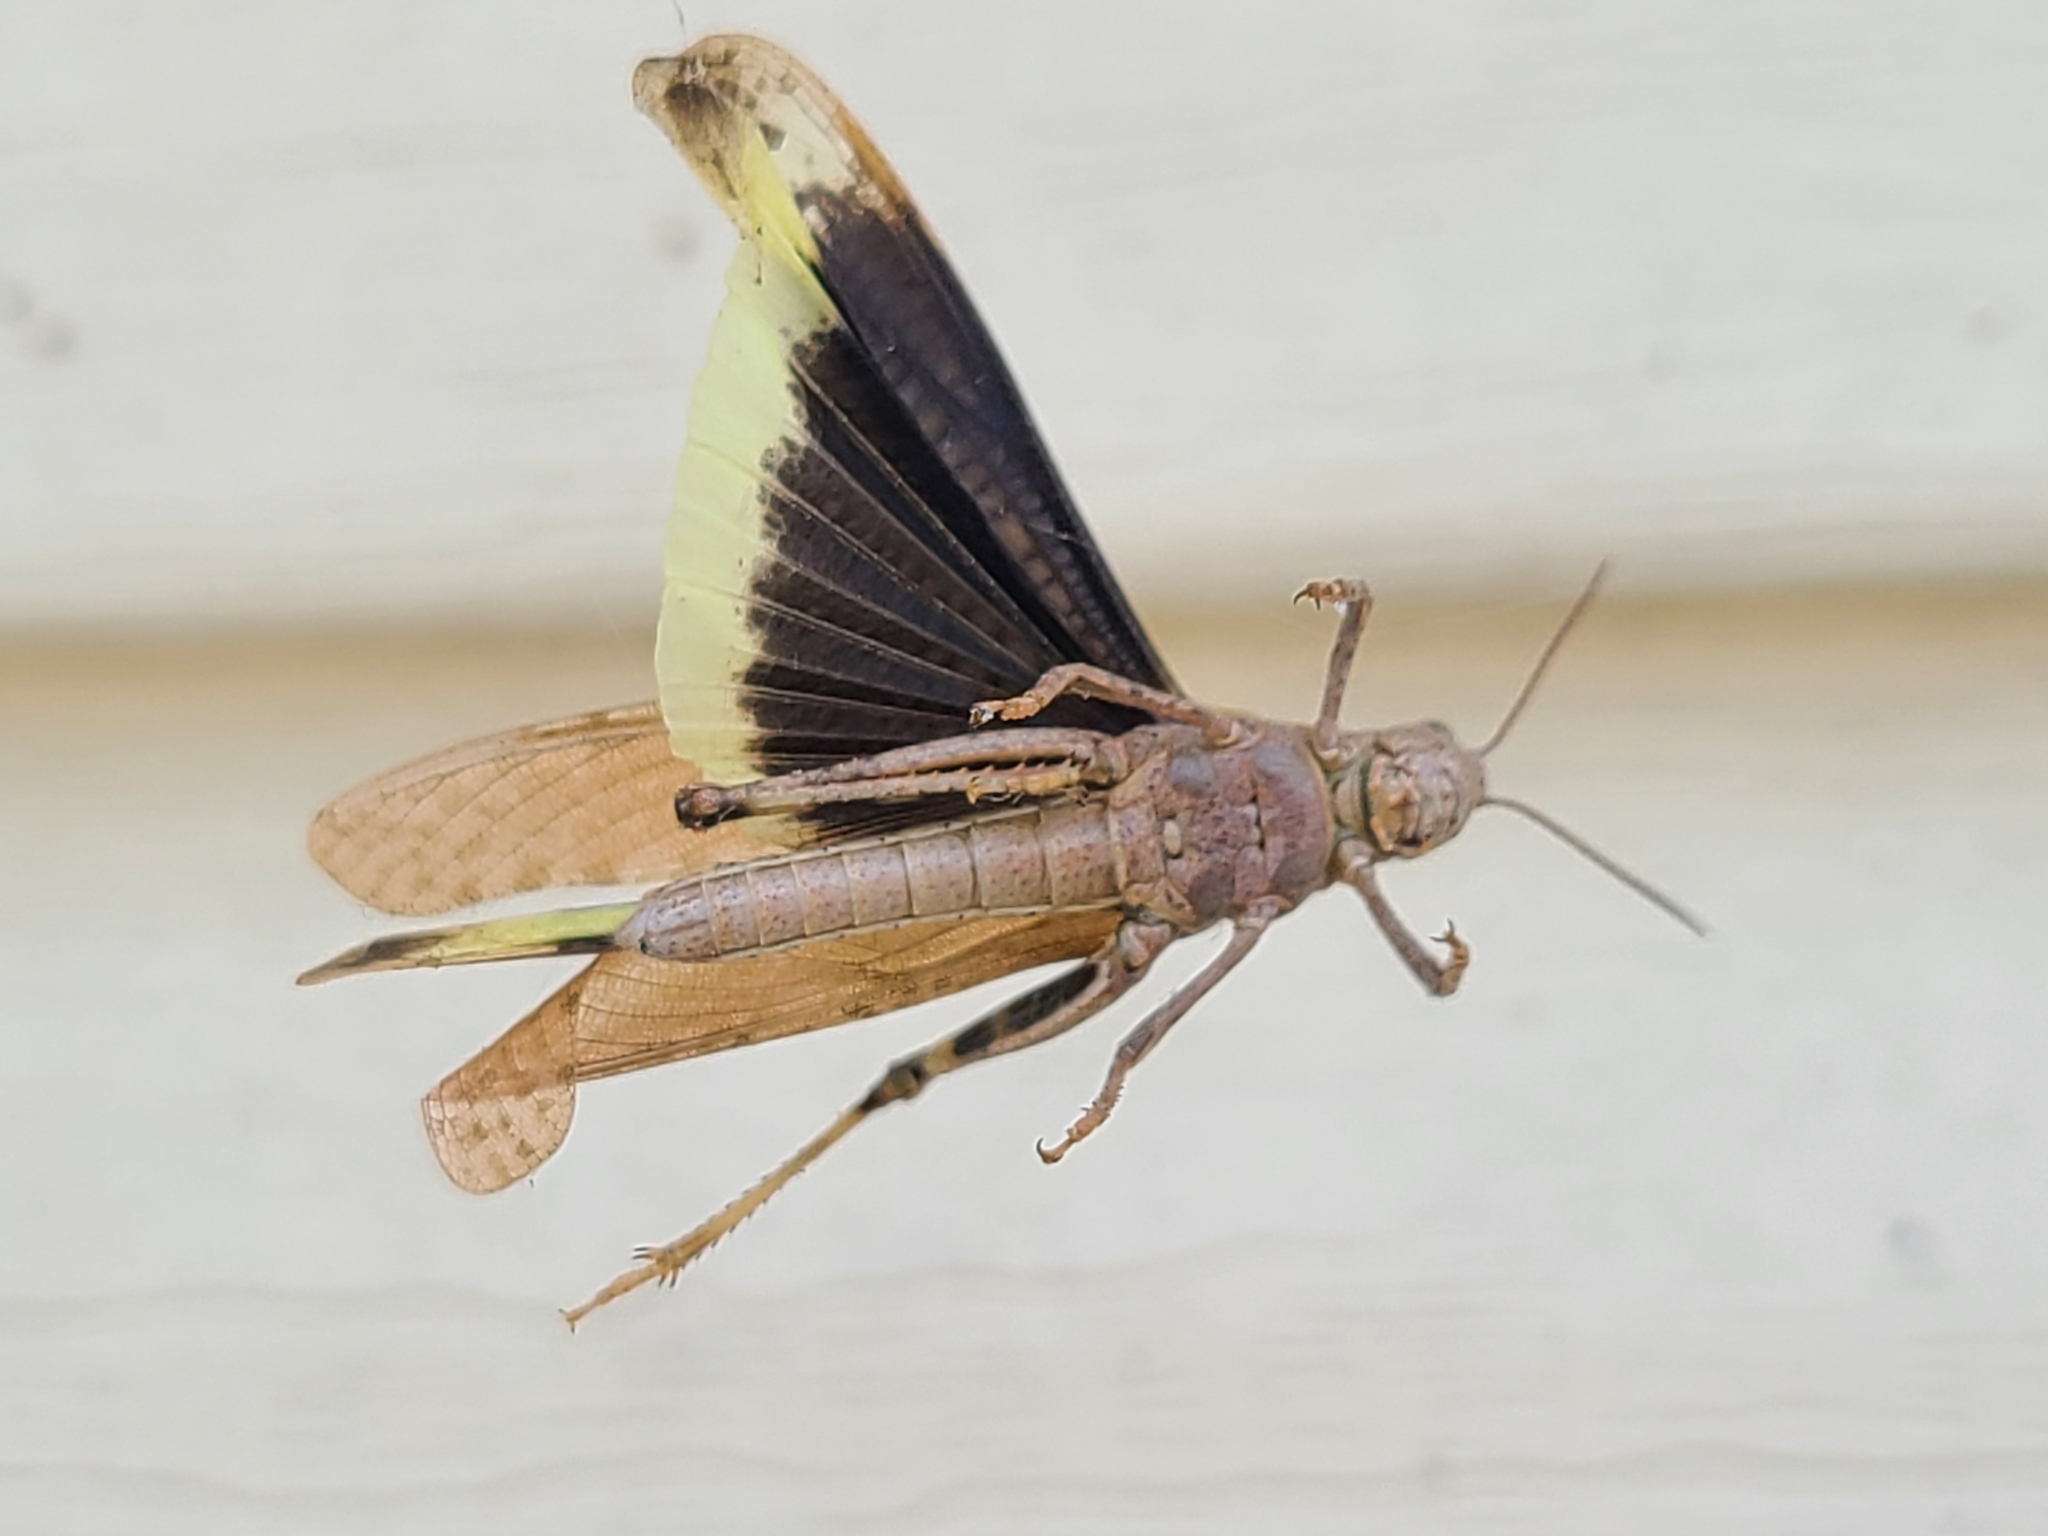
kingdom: Animalia
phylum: Arthropoda
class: Insecta
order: Orthoptera
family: Acrididae
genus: Dissosteira
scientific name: Dissosteira carolina
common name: Carolina grasshopper
